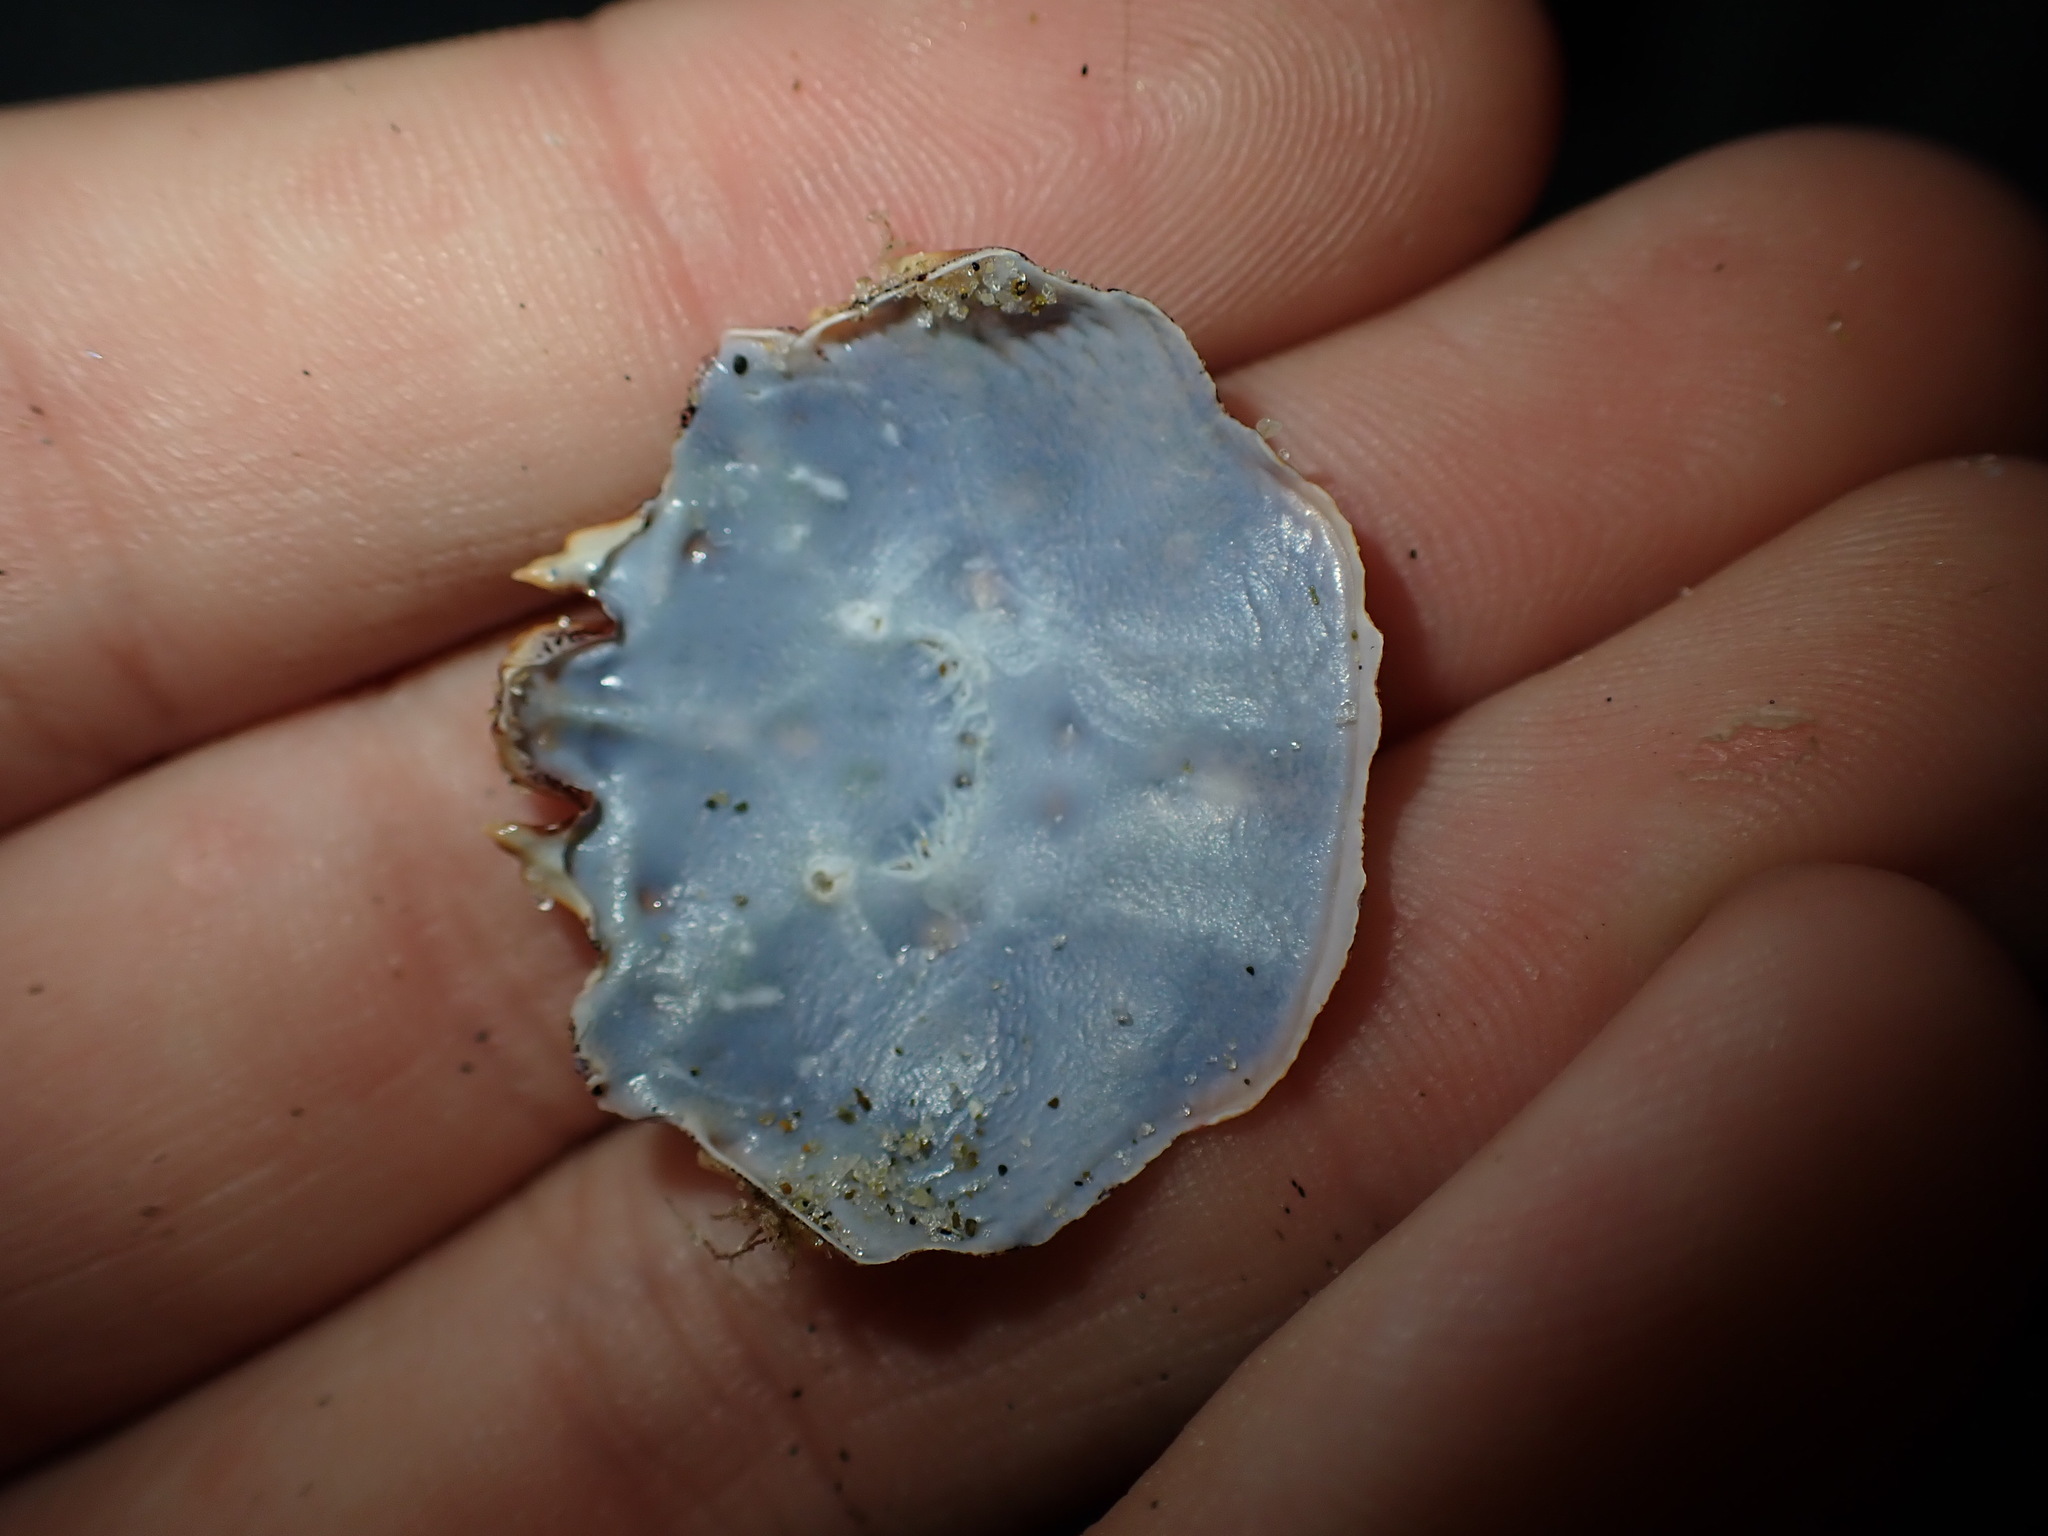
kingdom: Animalia
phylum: Arthropoda
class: Malacostraca
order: Decapoda
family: Plagusiidae
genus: Guinusia
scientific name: Guinusia chabrus
